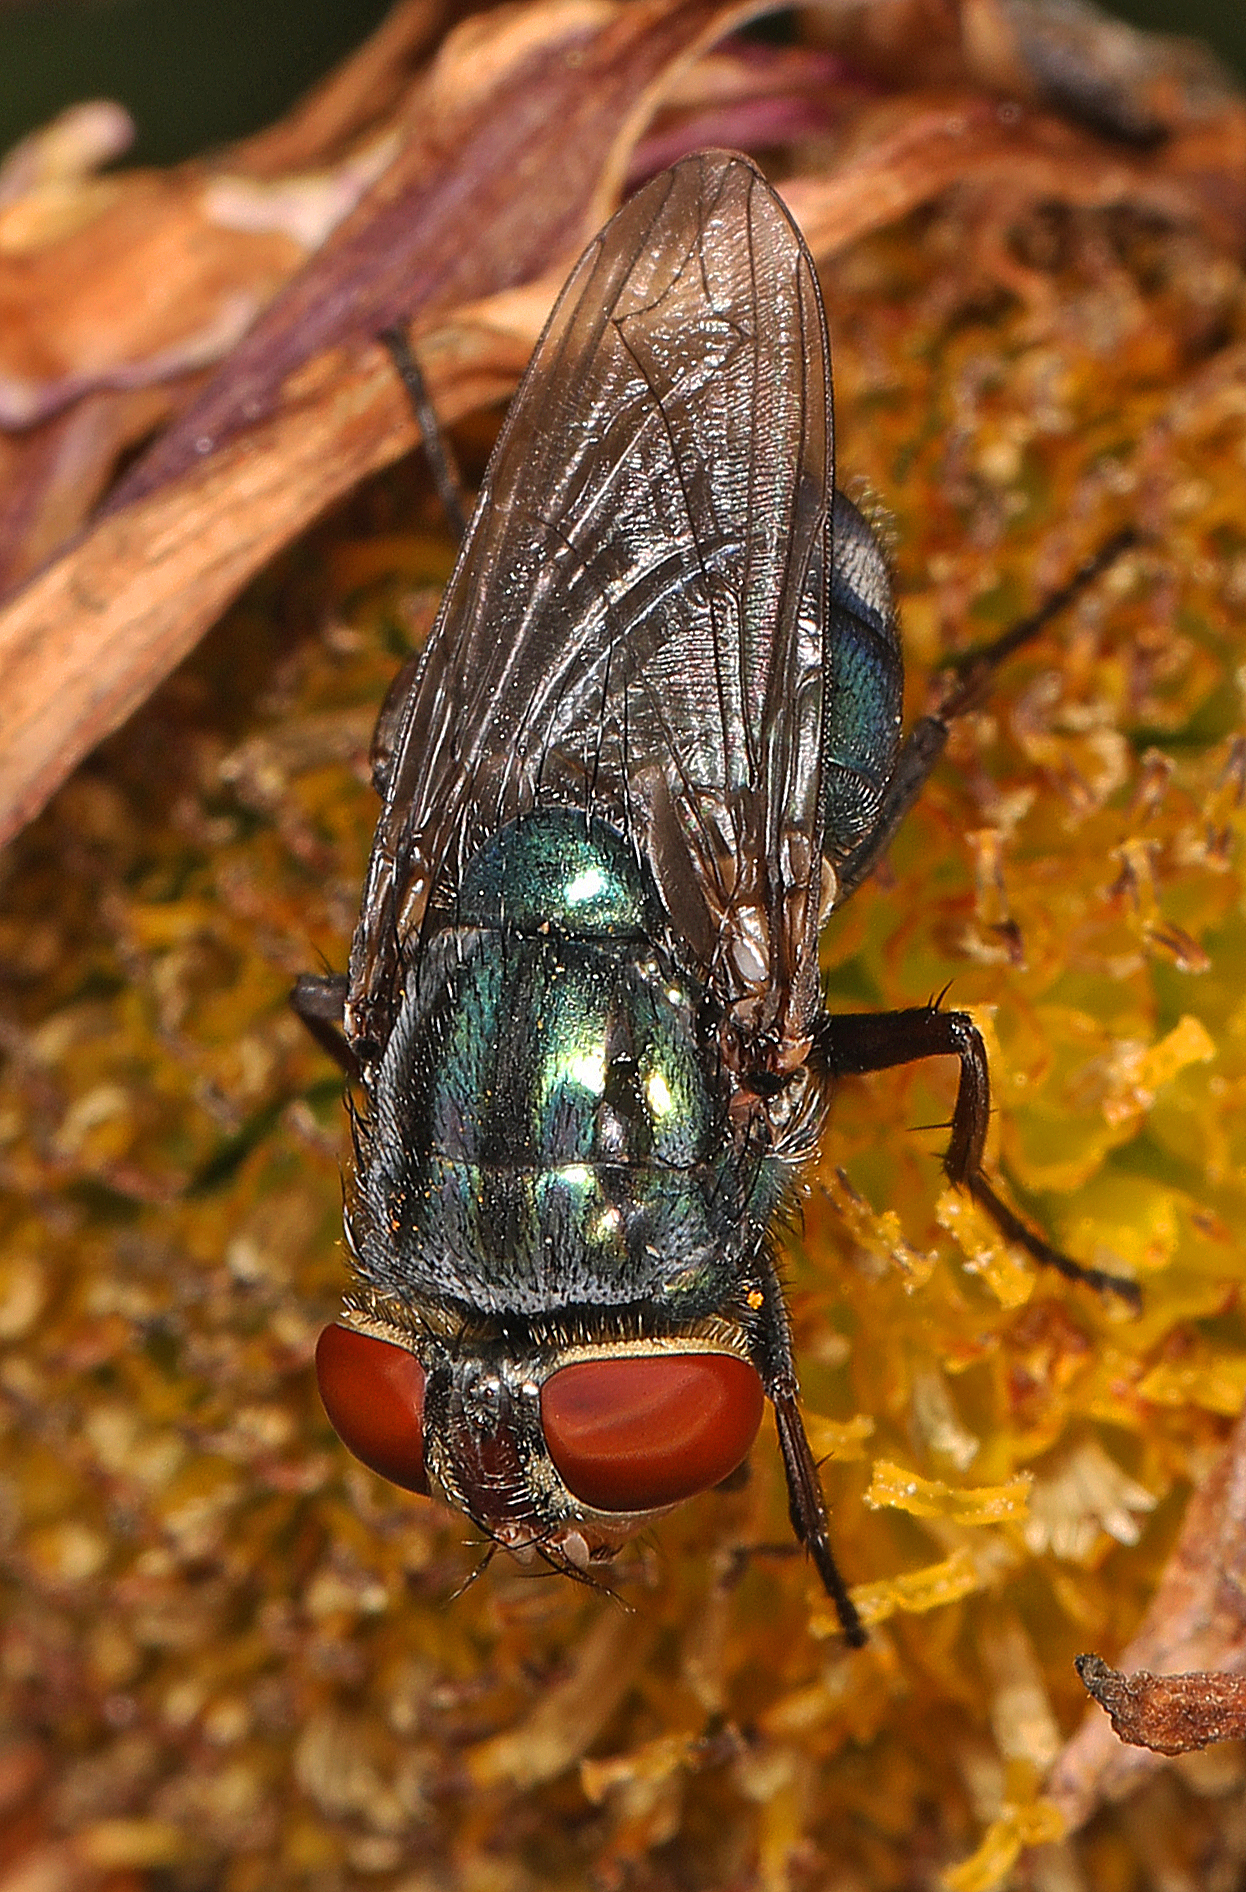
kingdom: Animalia
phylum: Arthropoda
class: Insecta
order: Diptera
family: Calliphoridae
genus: Cochliomyia
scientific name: Cochliomyia macellaria
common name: Secondary screwworm
